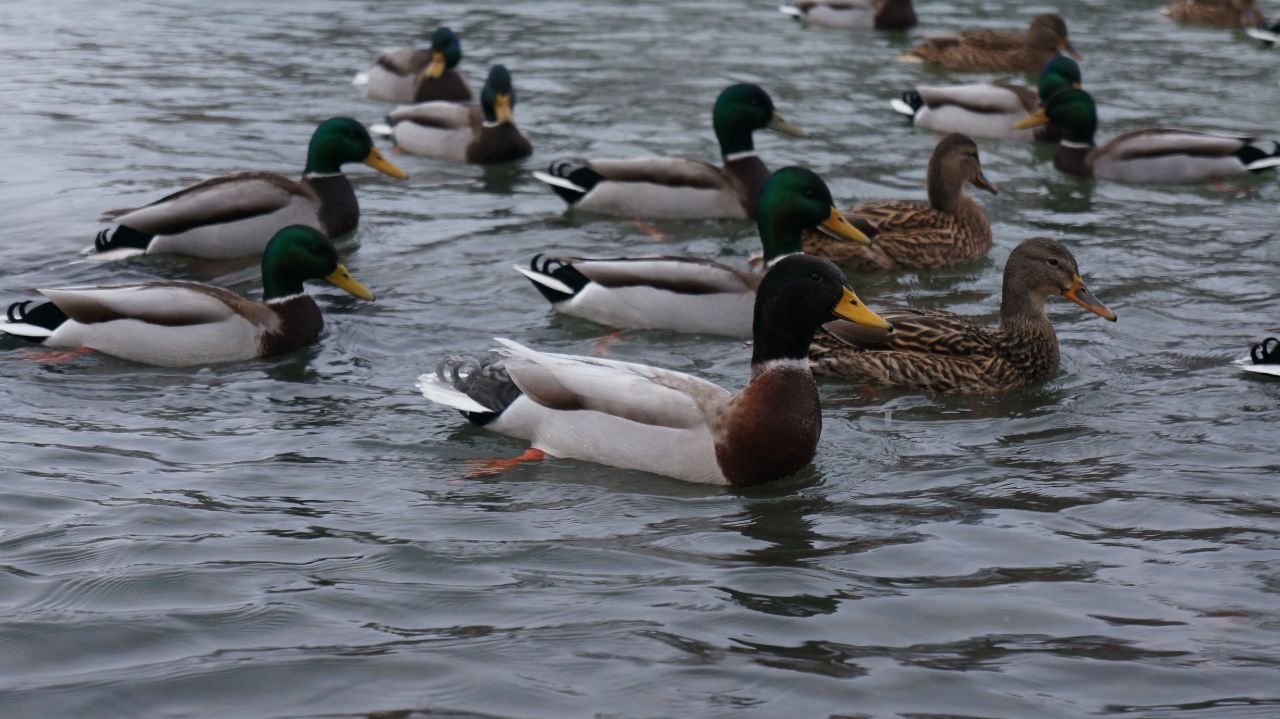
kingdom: Animalia
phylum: Chordata
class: Aves
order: Anseriformes
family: Anatidae
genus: Anas
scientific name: Anas platyrhynchos
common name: Mallard
